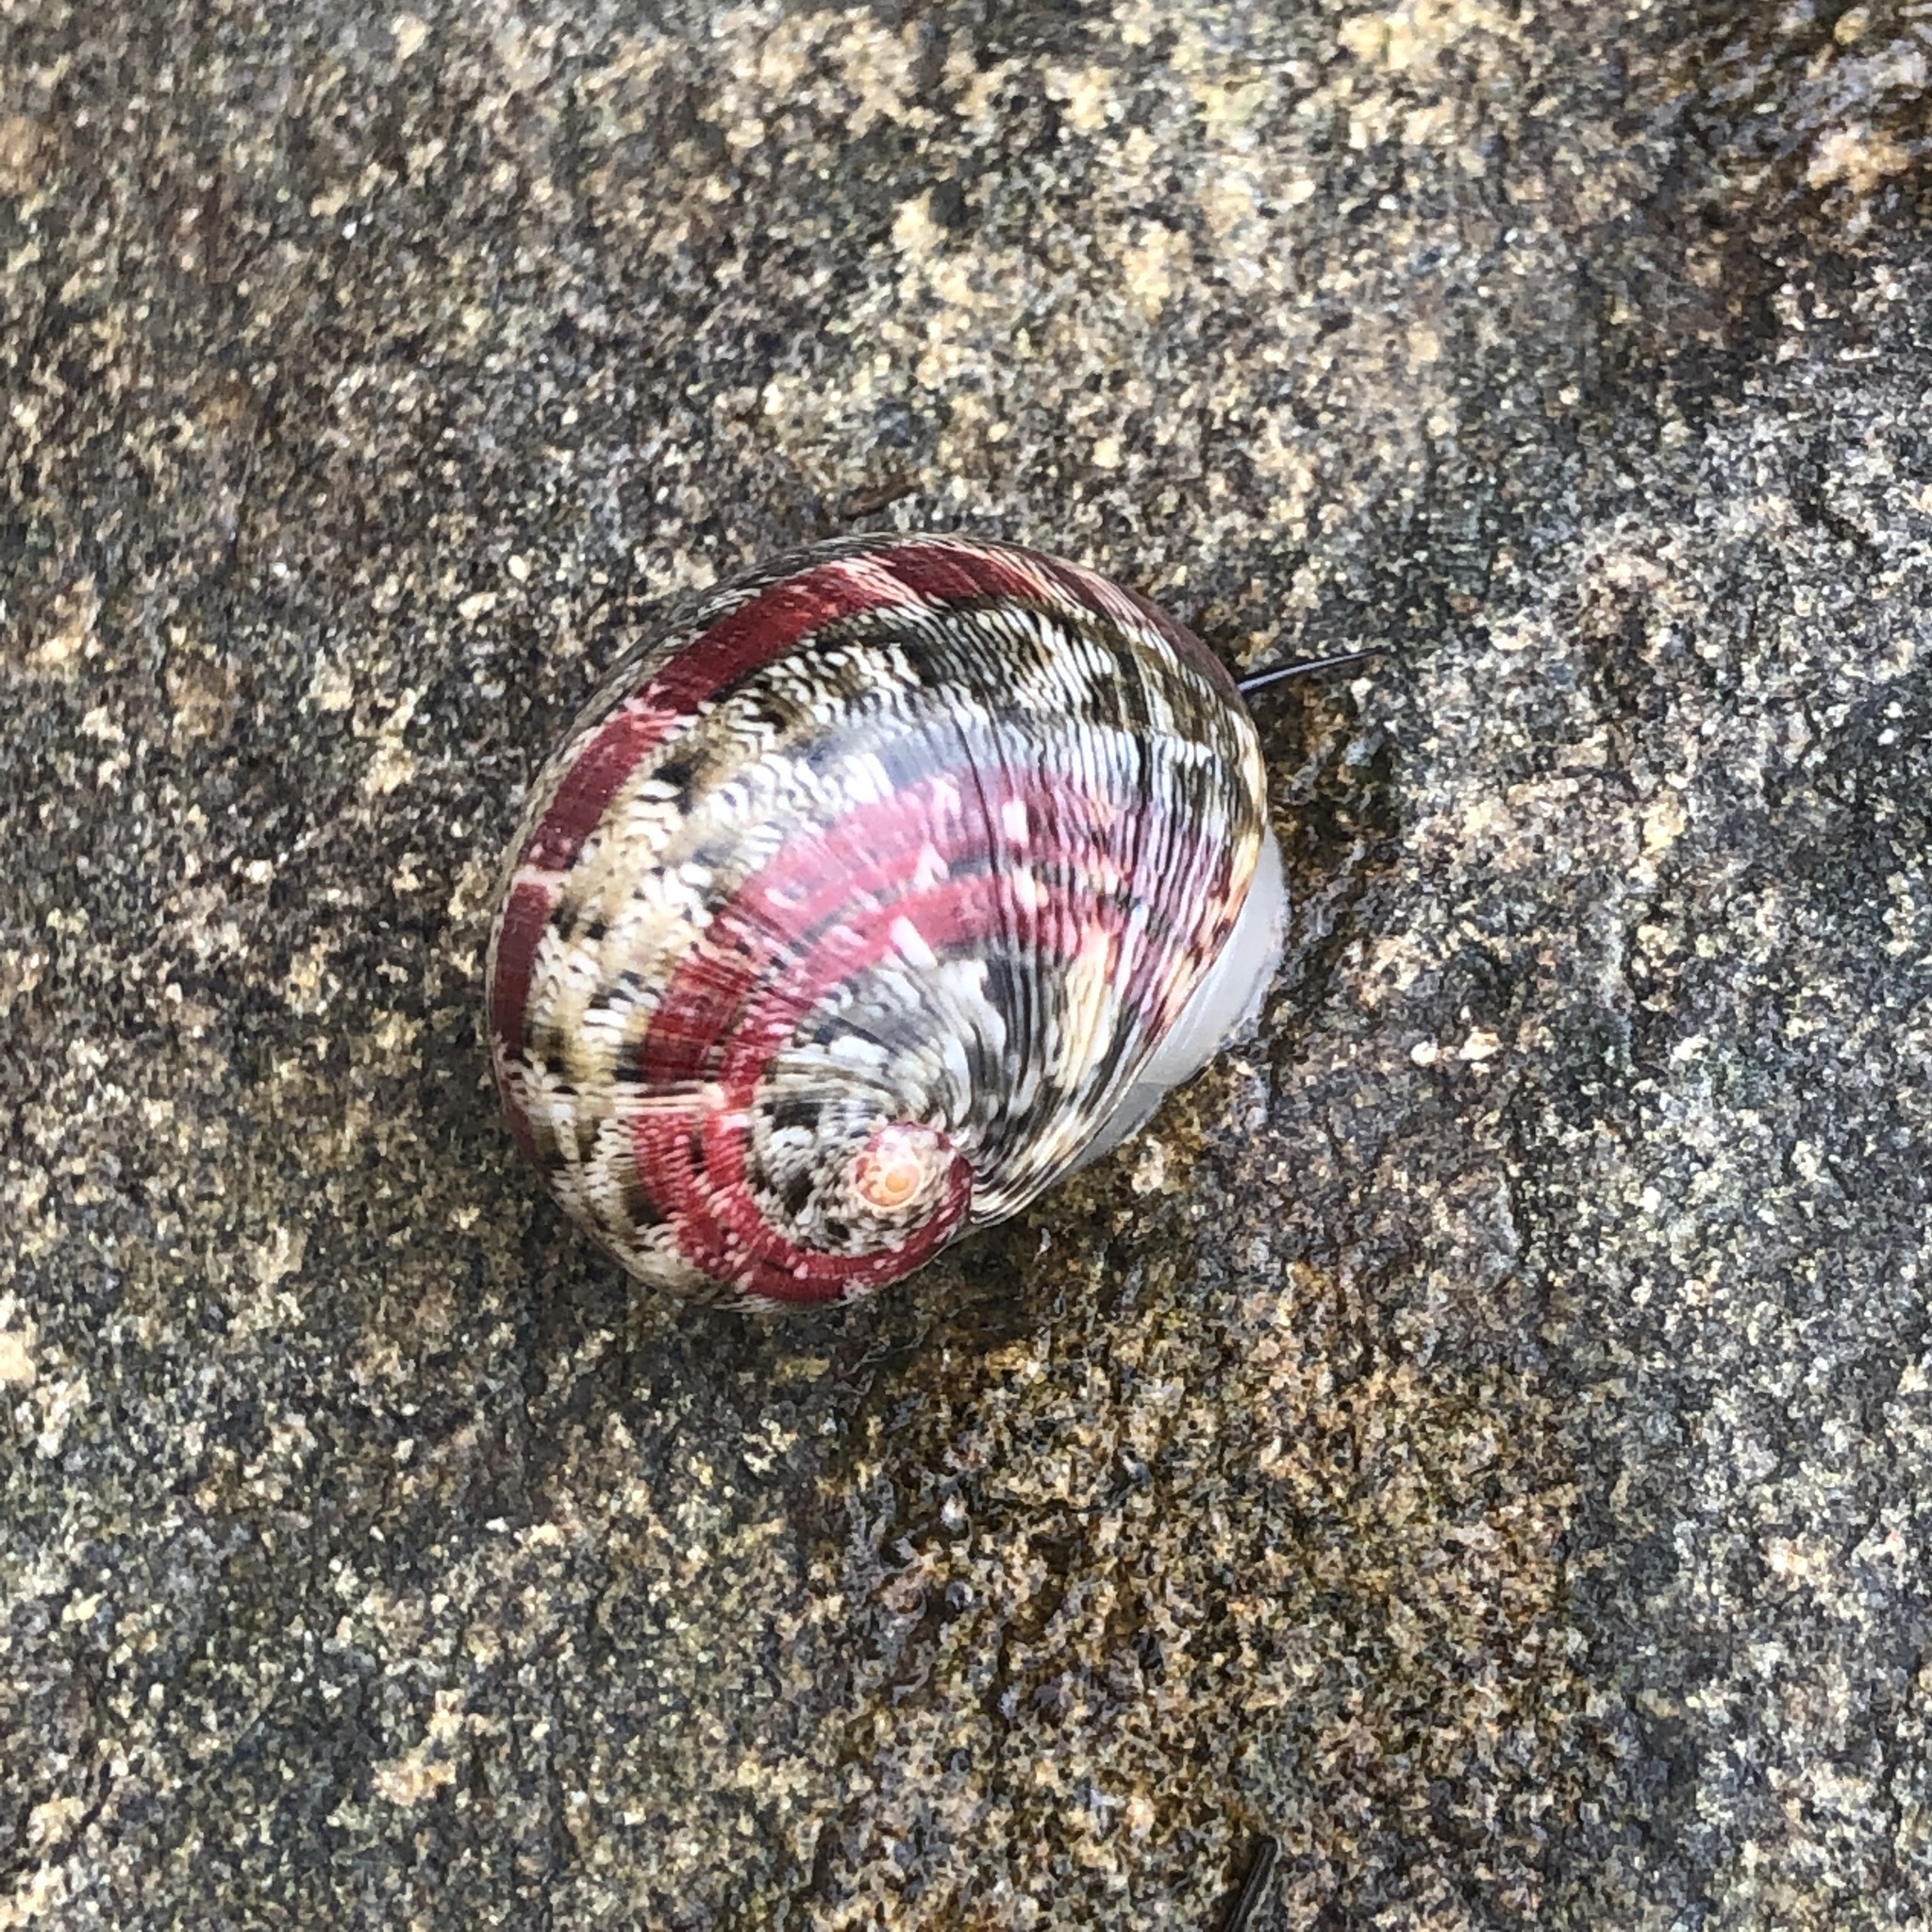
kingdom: Animalia
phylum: Mollusca
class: Gastropoda
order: Cycloneritida
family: Neritidae
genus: Nerita
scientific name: Nerita polita
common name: Polished nerite
